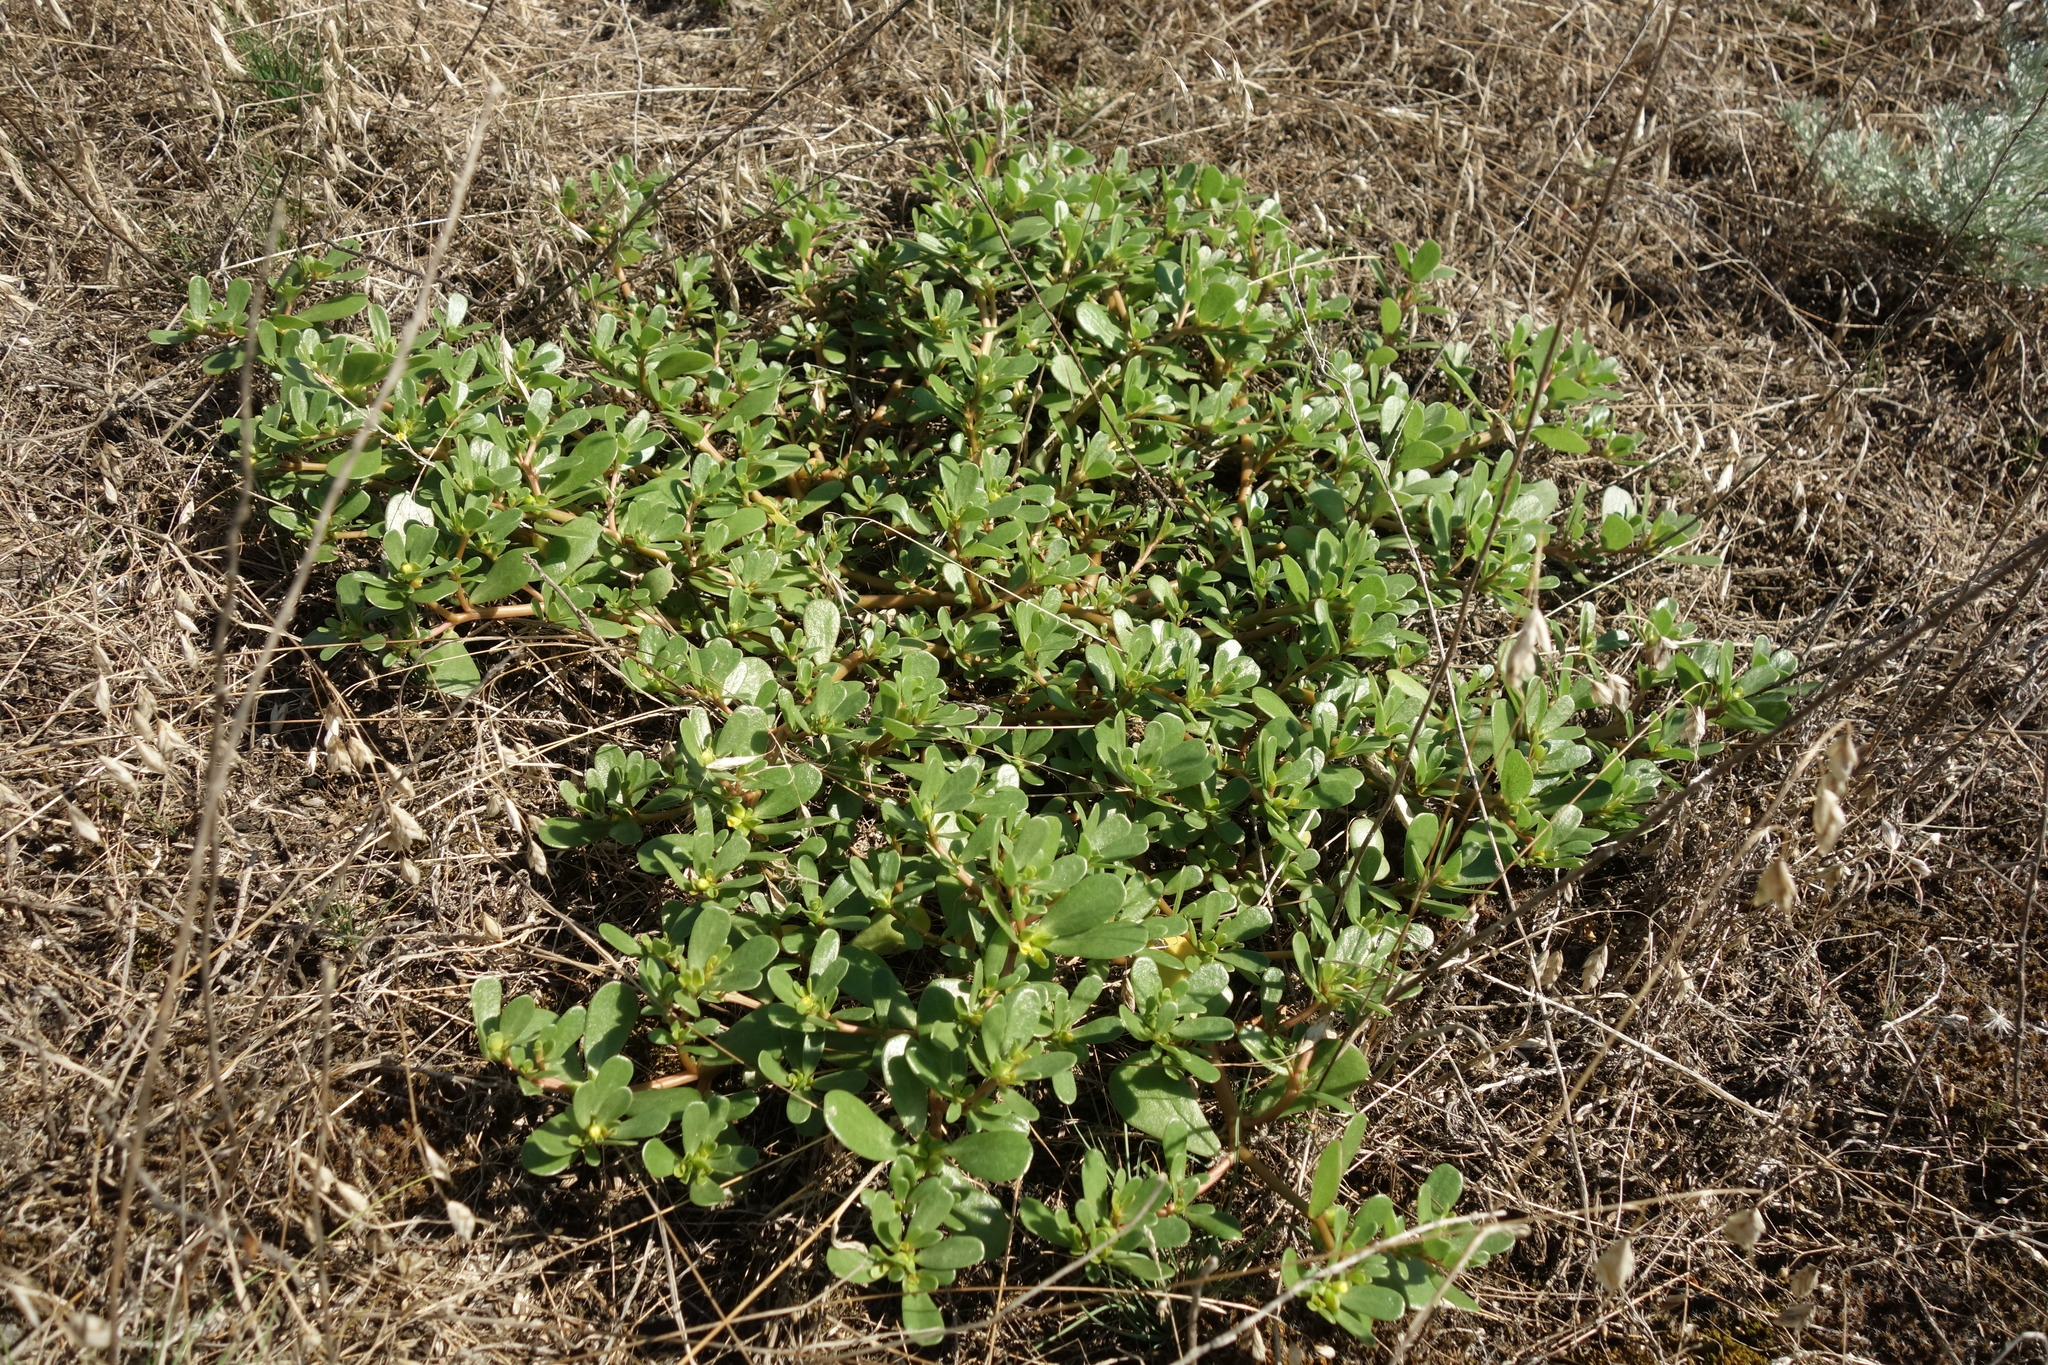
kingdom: Plantae
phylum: Tracheophyta
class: Magnoliopsida
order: Caryophyllales
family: Portulacaceae
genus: Portulaca
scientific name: Portulaca oleracea
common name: Common purslane
